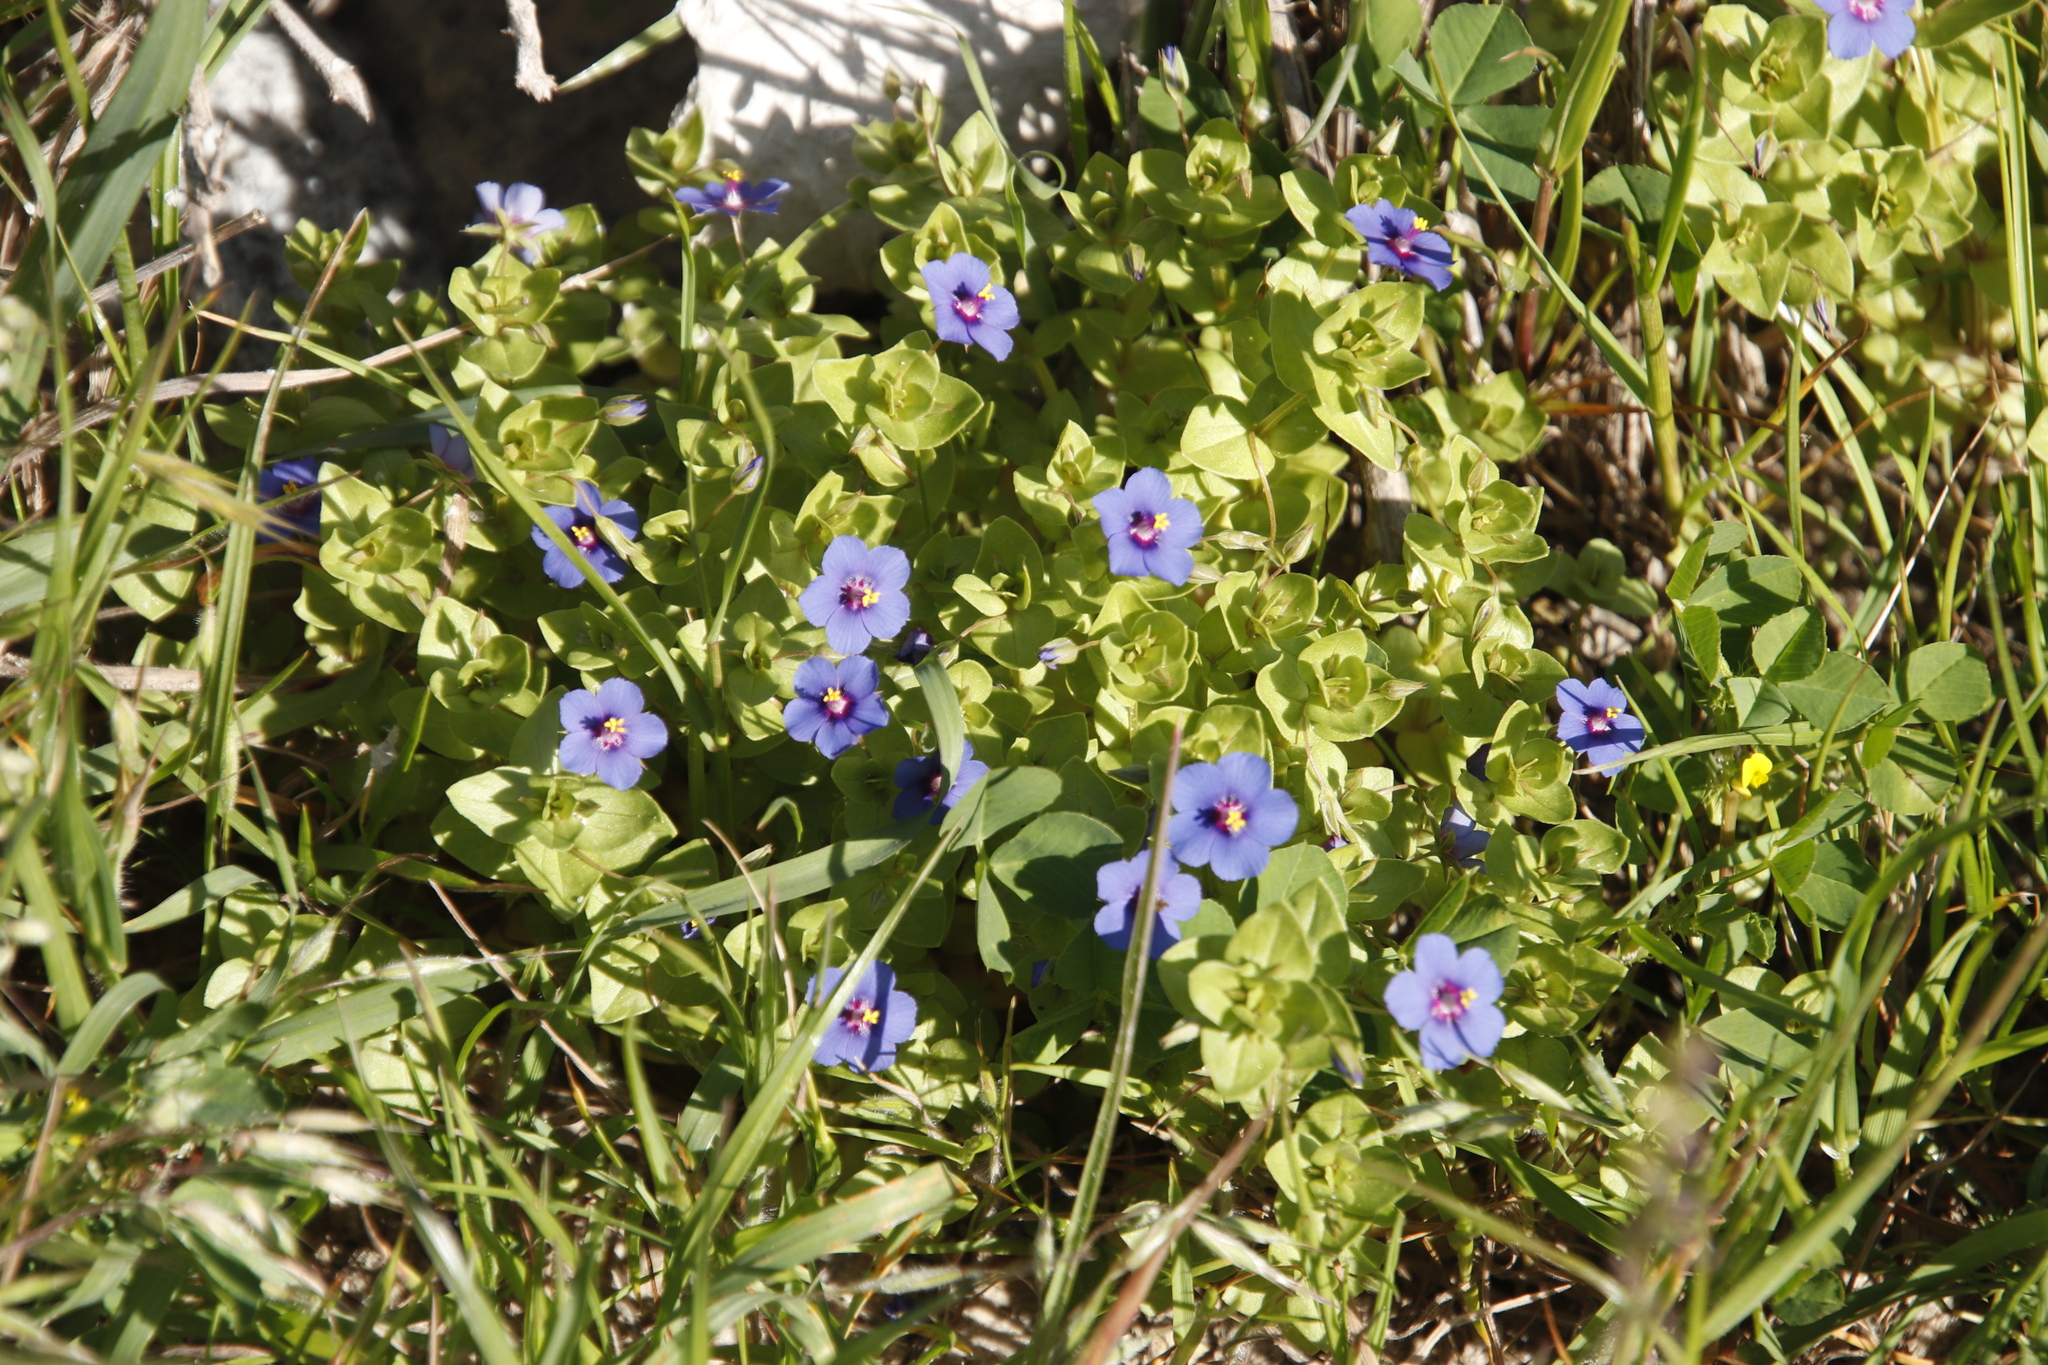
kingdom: Plantae
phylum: Tracheophyta
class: Magnoliopsida
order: Ericales
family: Primulaceae
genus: Lysimachia
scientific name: Lysimachia loeflingii
